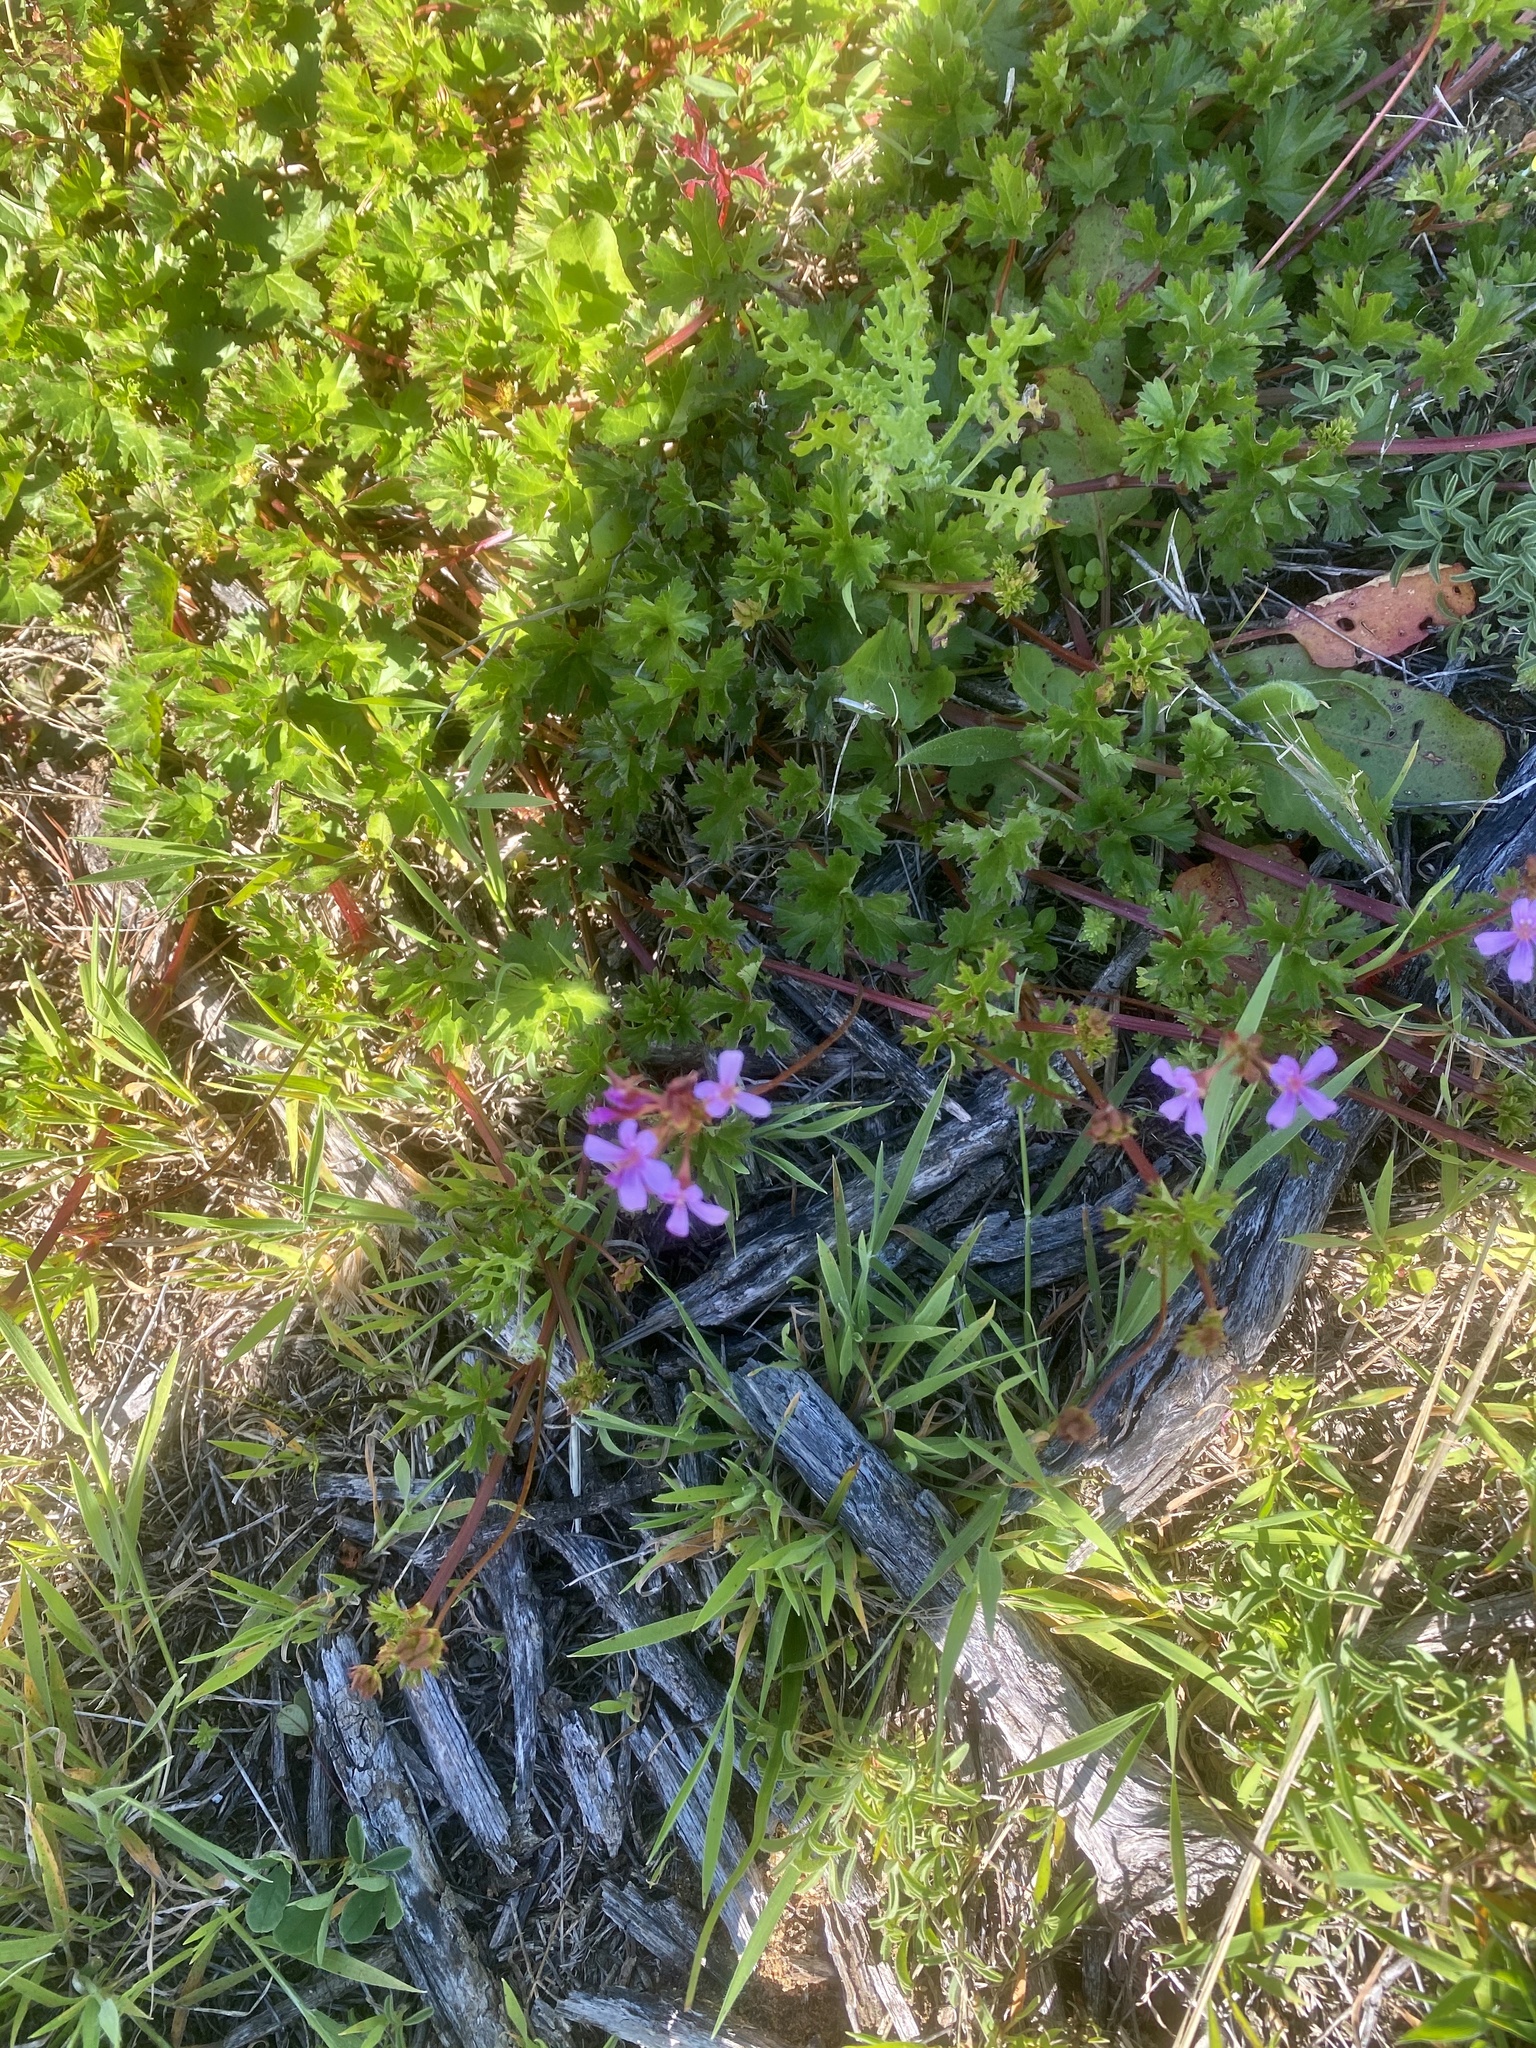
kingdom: Plantae
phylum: Tracheophyta
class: Magnoliopsida
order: Geraniales
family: Geraniaceae
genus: Pelargonium
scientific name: Pelargonium grossularioides
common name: Gooseberry geranium
